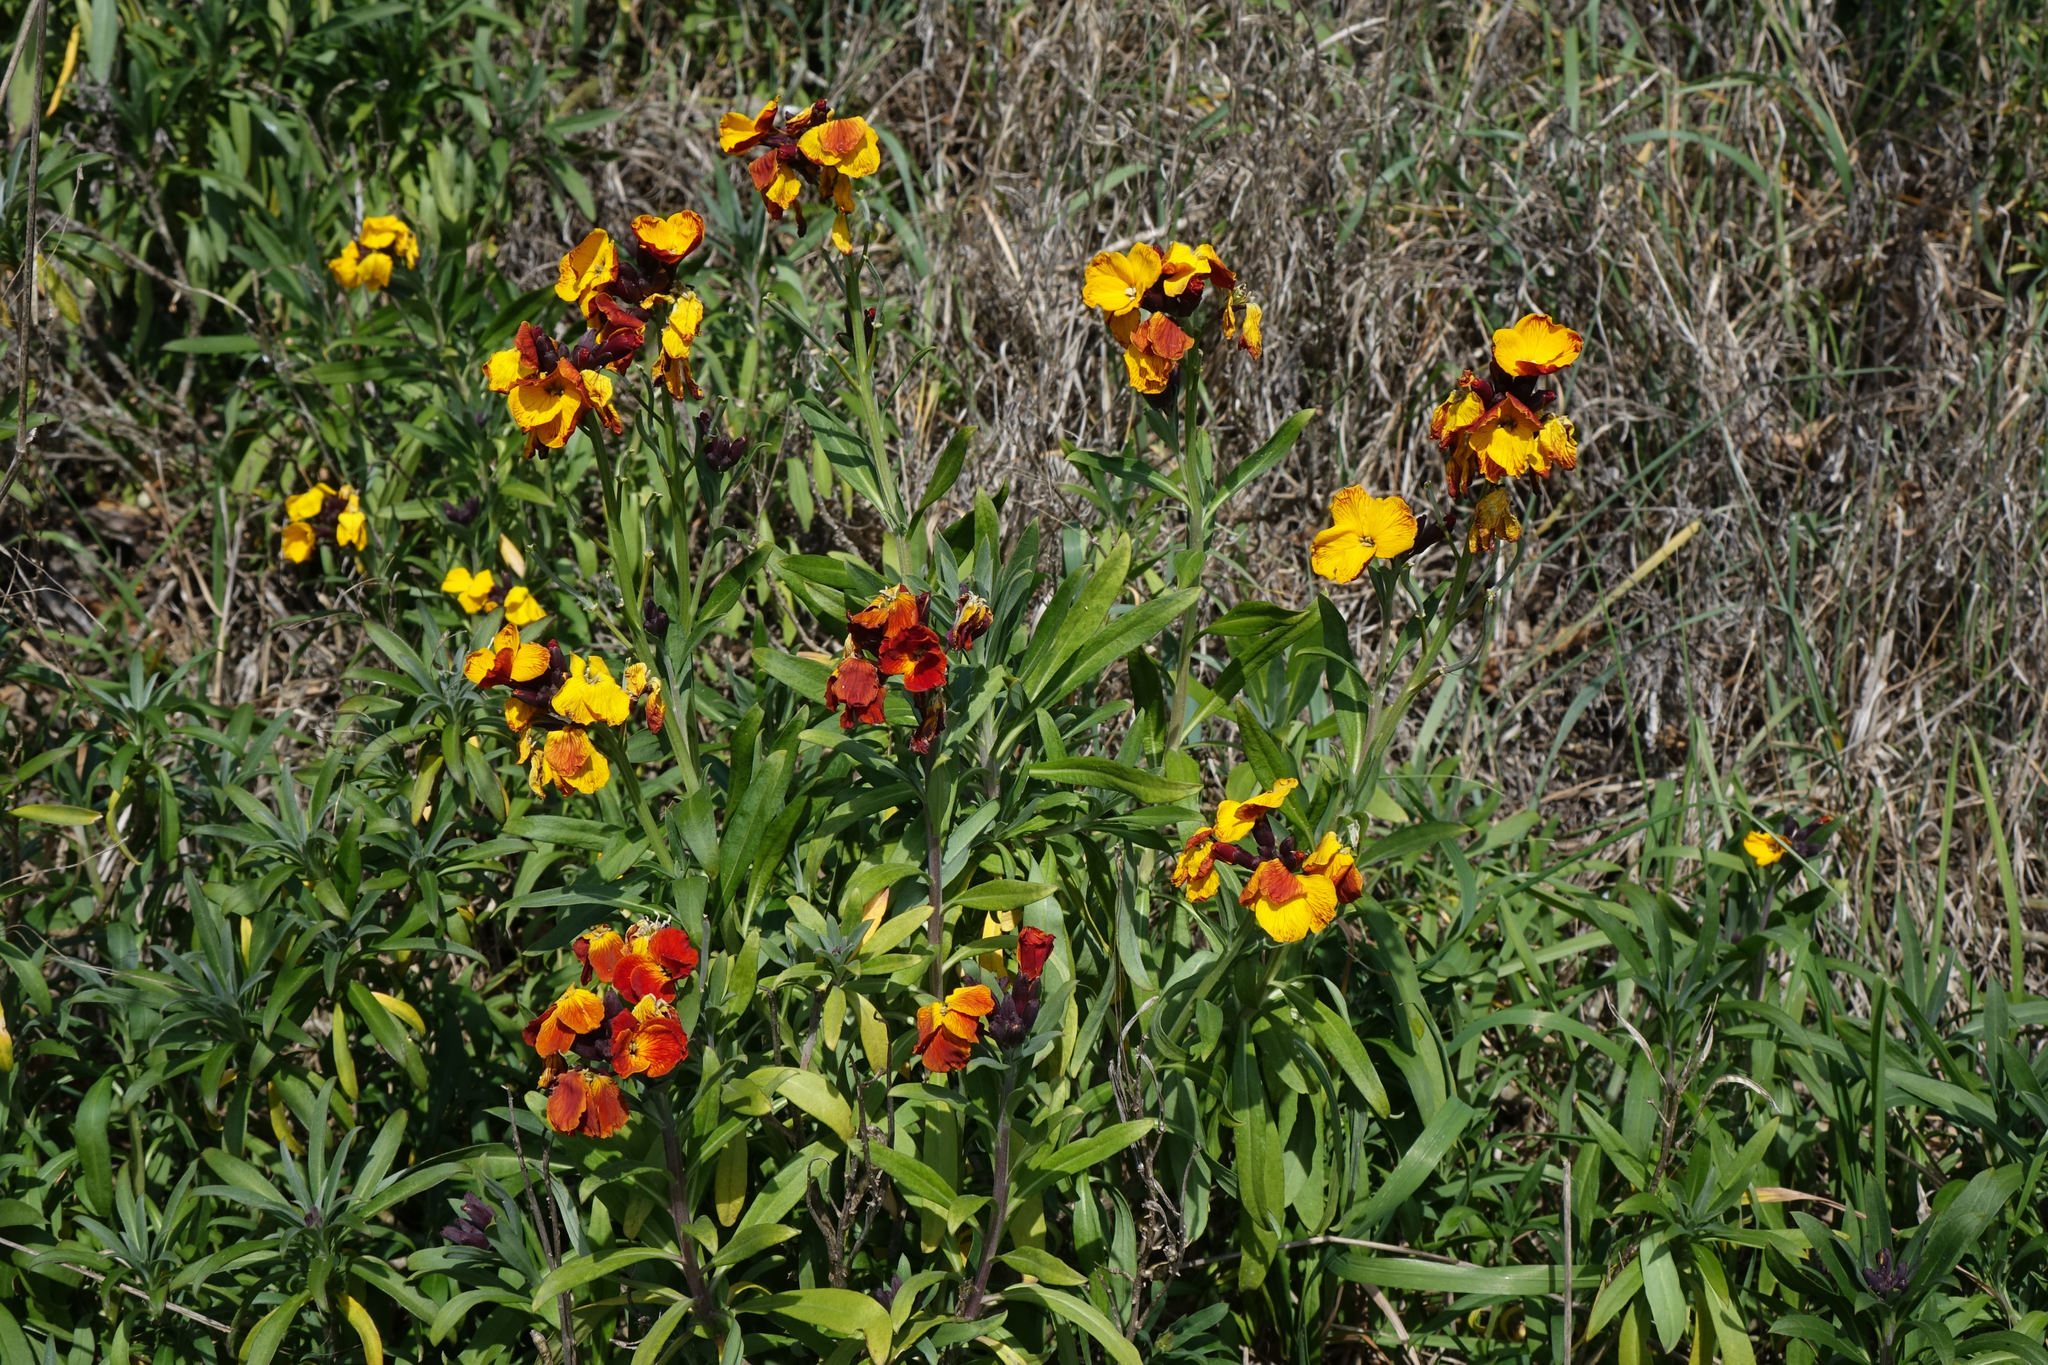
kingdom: Plantae
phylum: Tracheophyta
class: Magnoliopsida
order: Brassicales
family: Brassicaceae
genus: Erysimum
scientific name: Erysimum cheiri
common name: Wallflower
